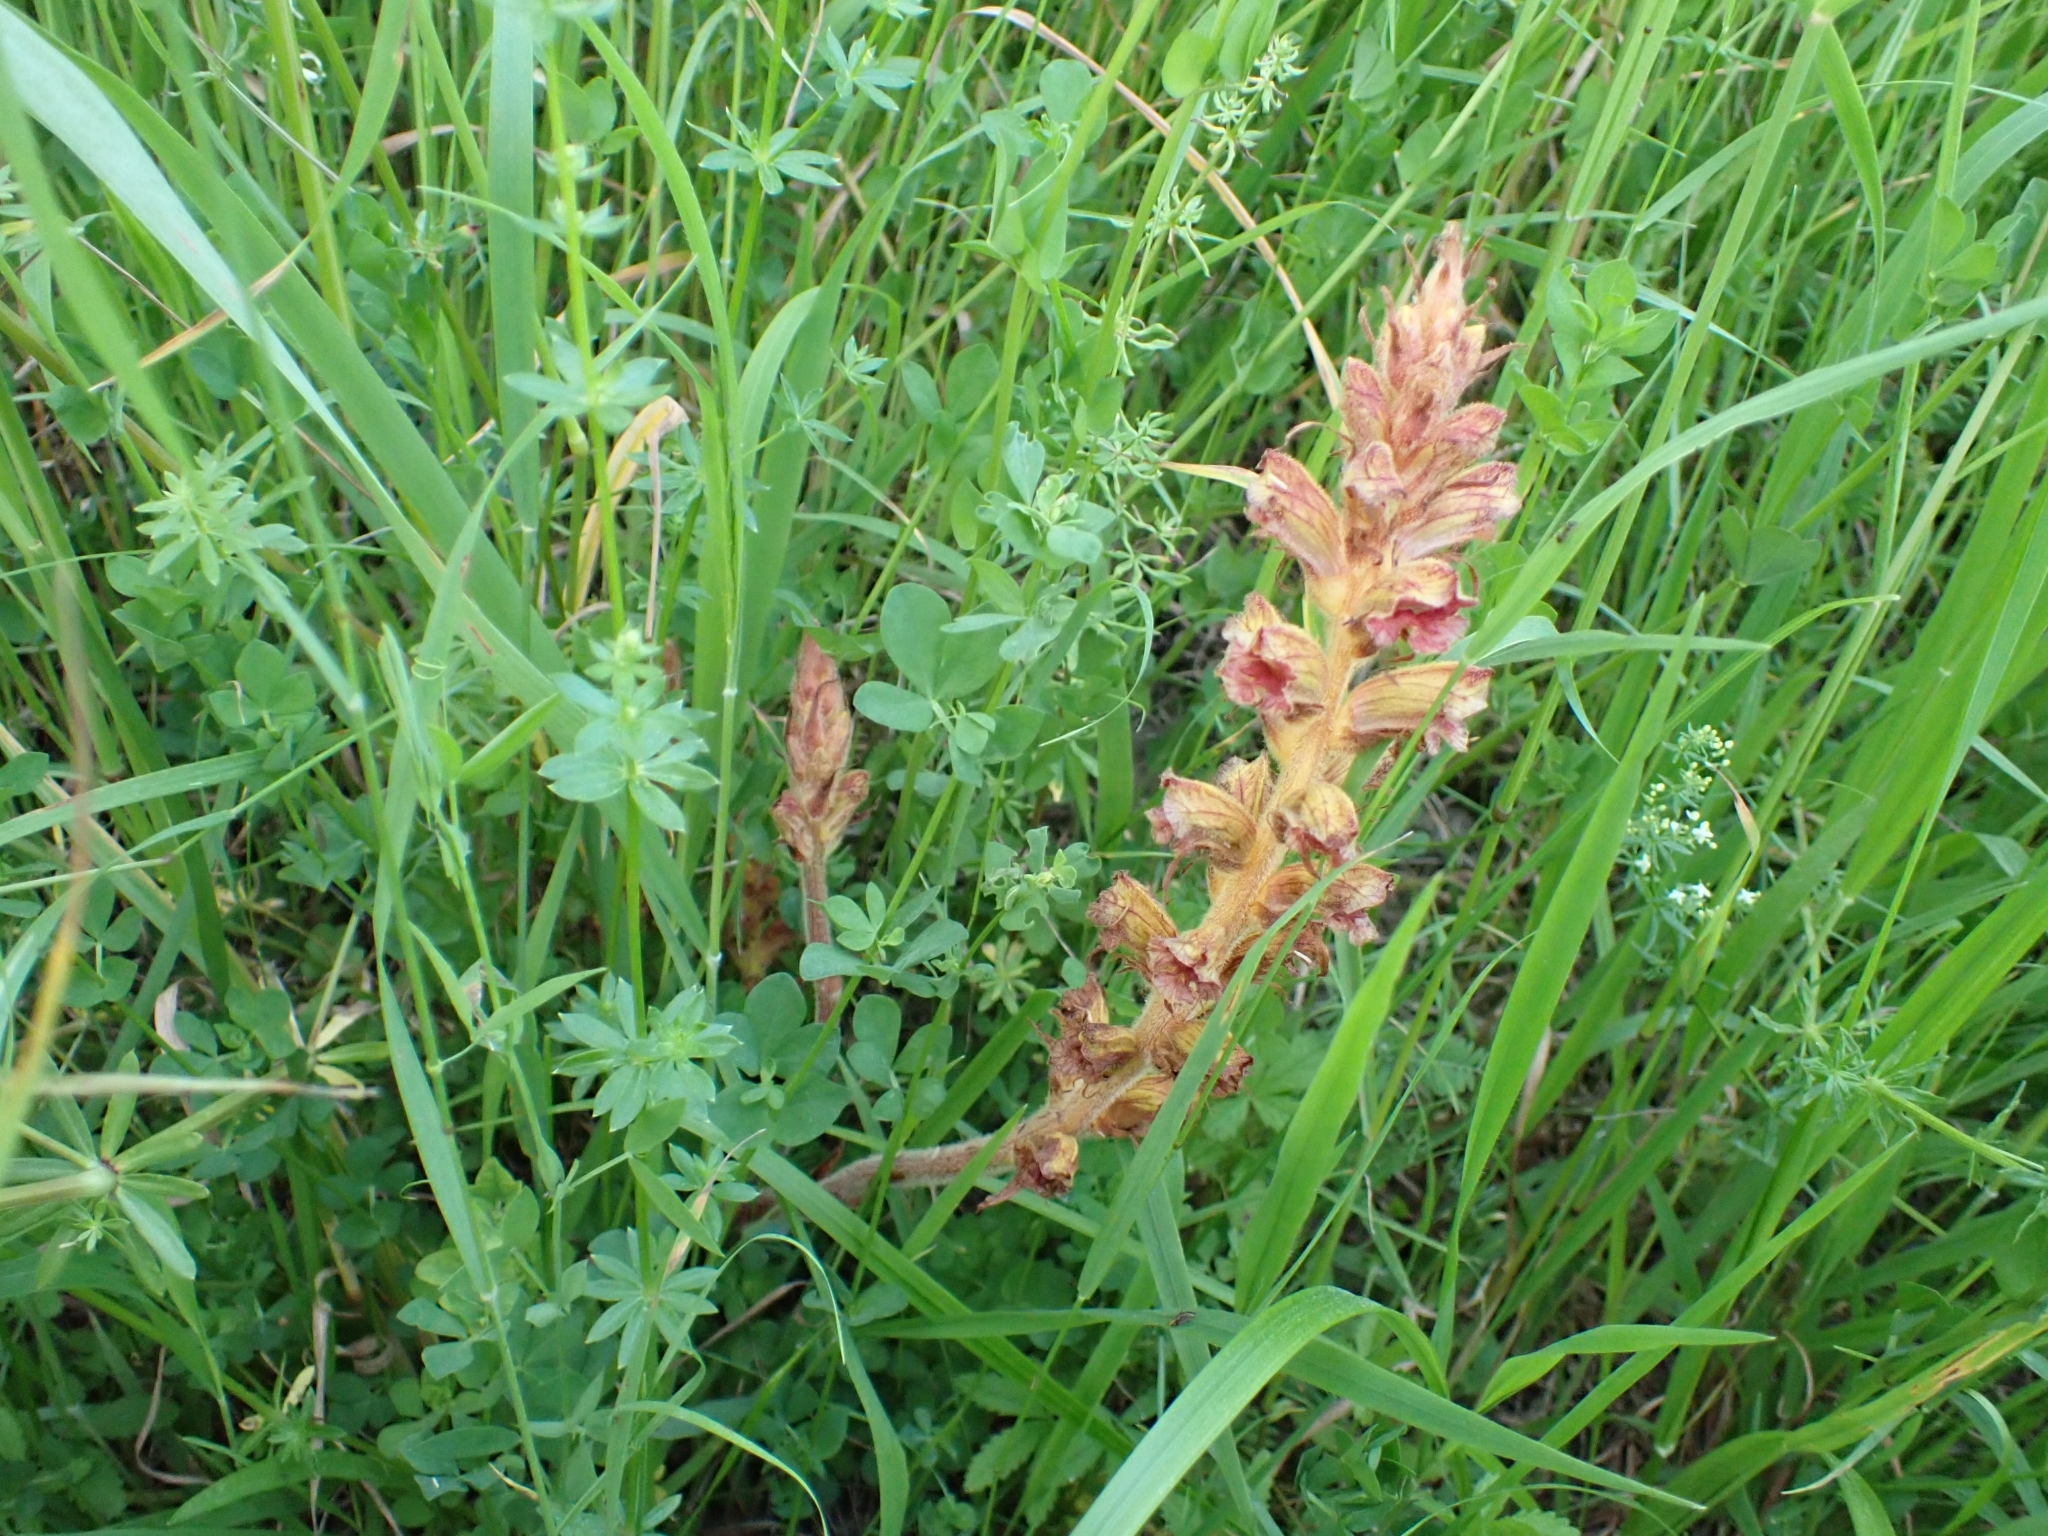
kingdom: Plantae
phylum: Tracheophyta
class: Magnoliopsida
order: Lamiales
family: Orobanchaceae
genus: Orobanche
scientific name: Orobanche gracilis
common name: Slender broomrape
